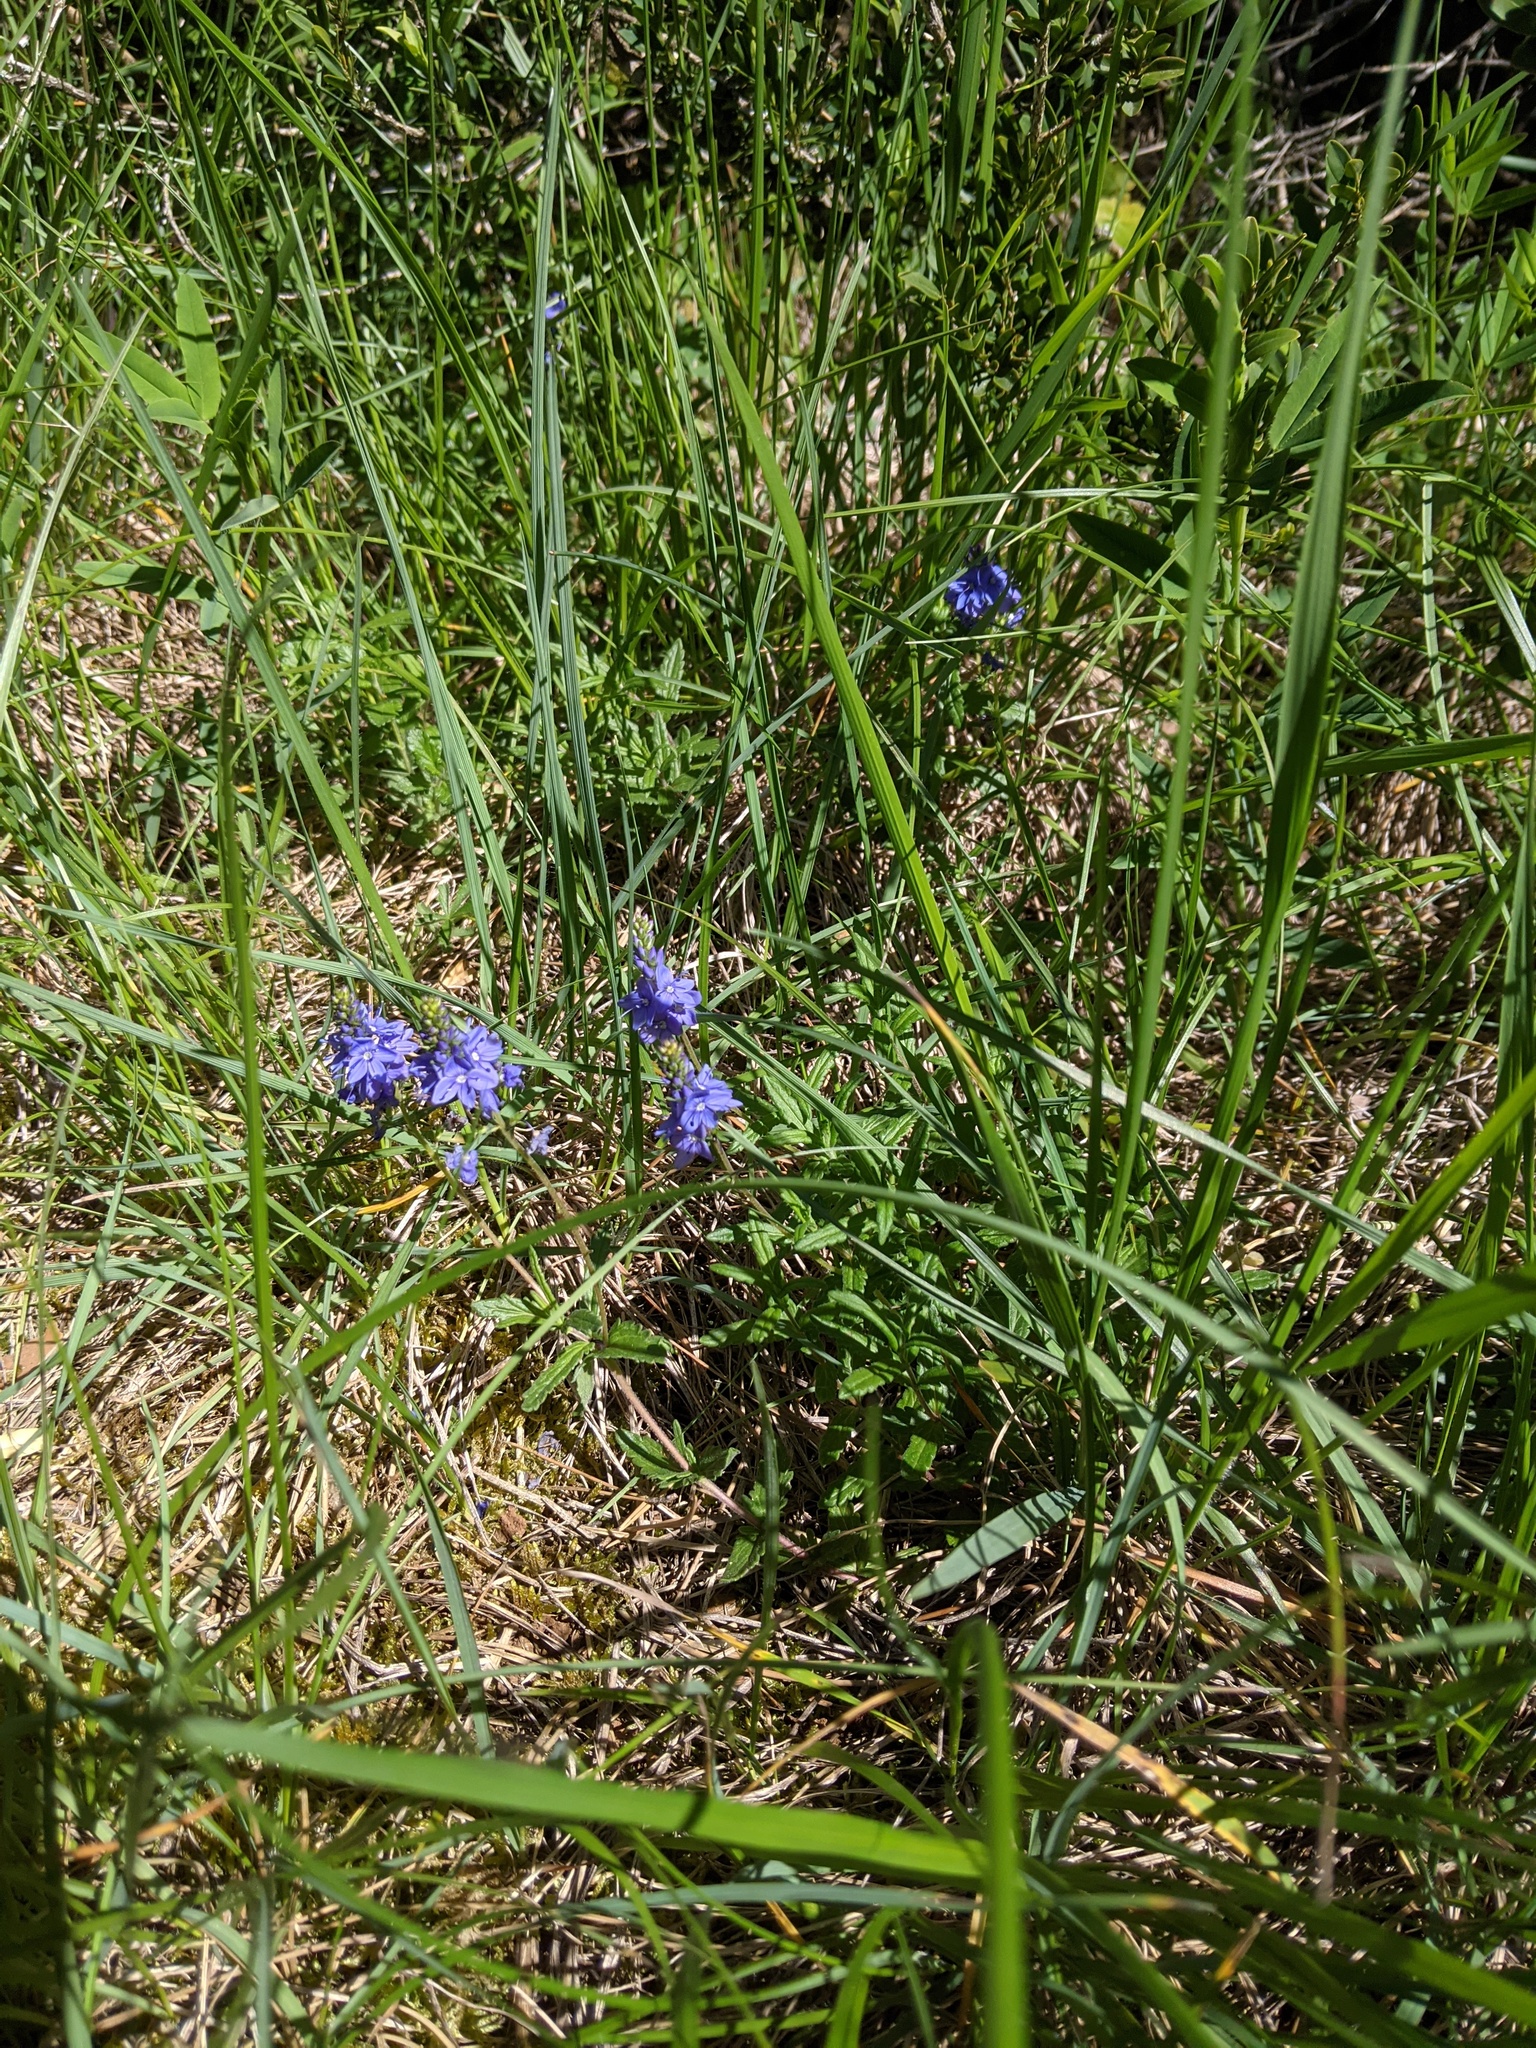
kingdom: Plantae
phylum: Tracheophyta
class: Magnoliopsida
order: Lamiales
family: Plantaginaceae
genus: Veronica
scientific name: Veronica teucrium
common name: Large speedwell
